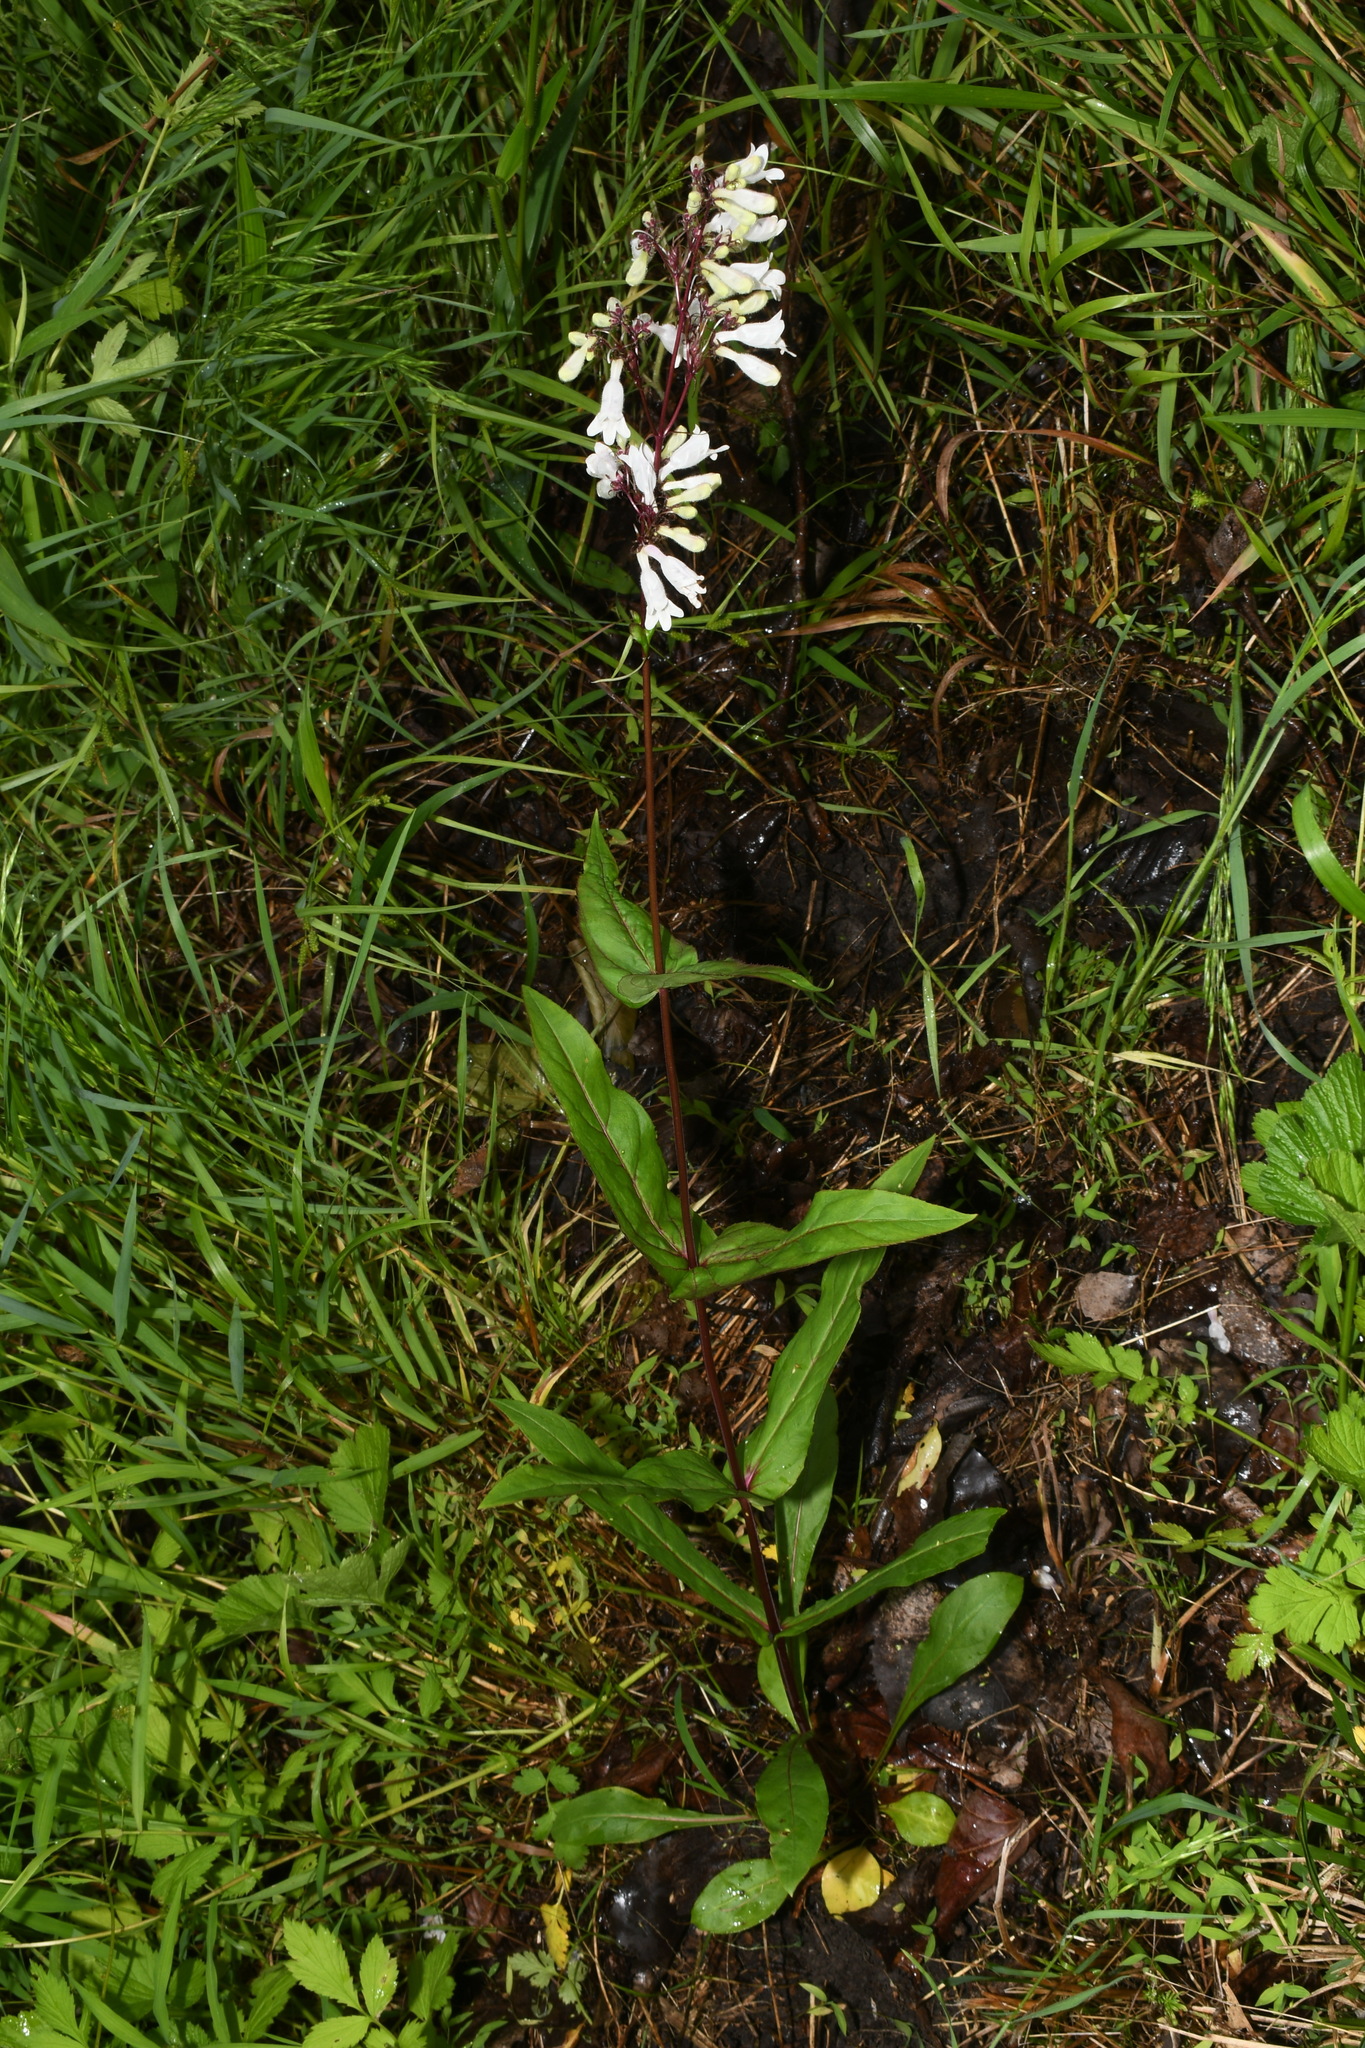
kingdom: Plantae
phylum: Tracheophyta
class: Magnoliopsida
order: Lamiales
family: Plantaginaceae
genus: Penstemon
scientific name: Penstemon digitalis
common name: Foxglove beardtongue
